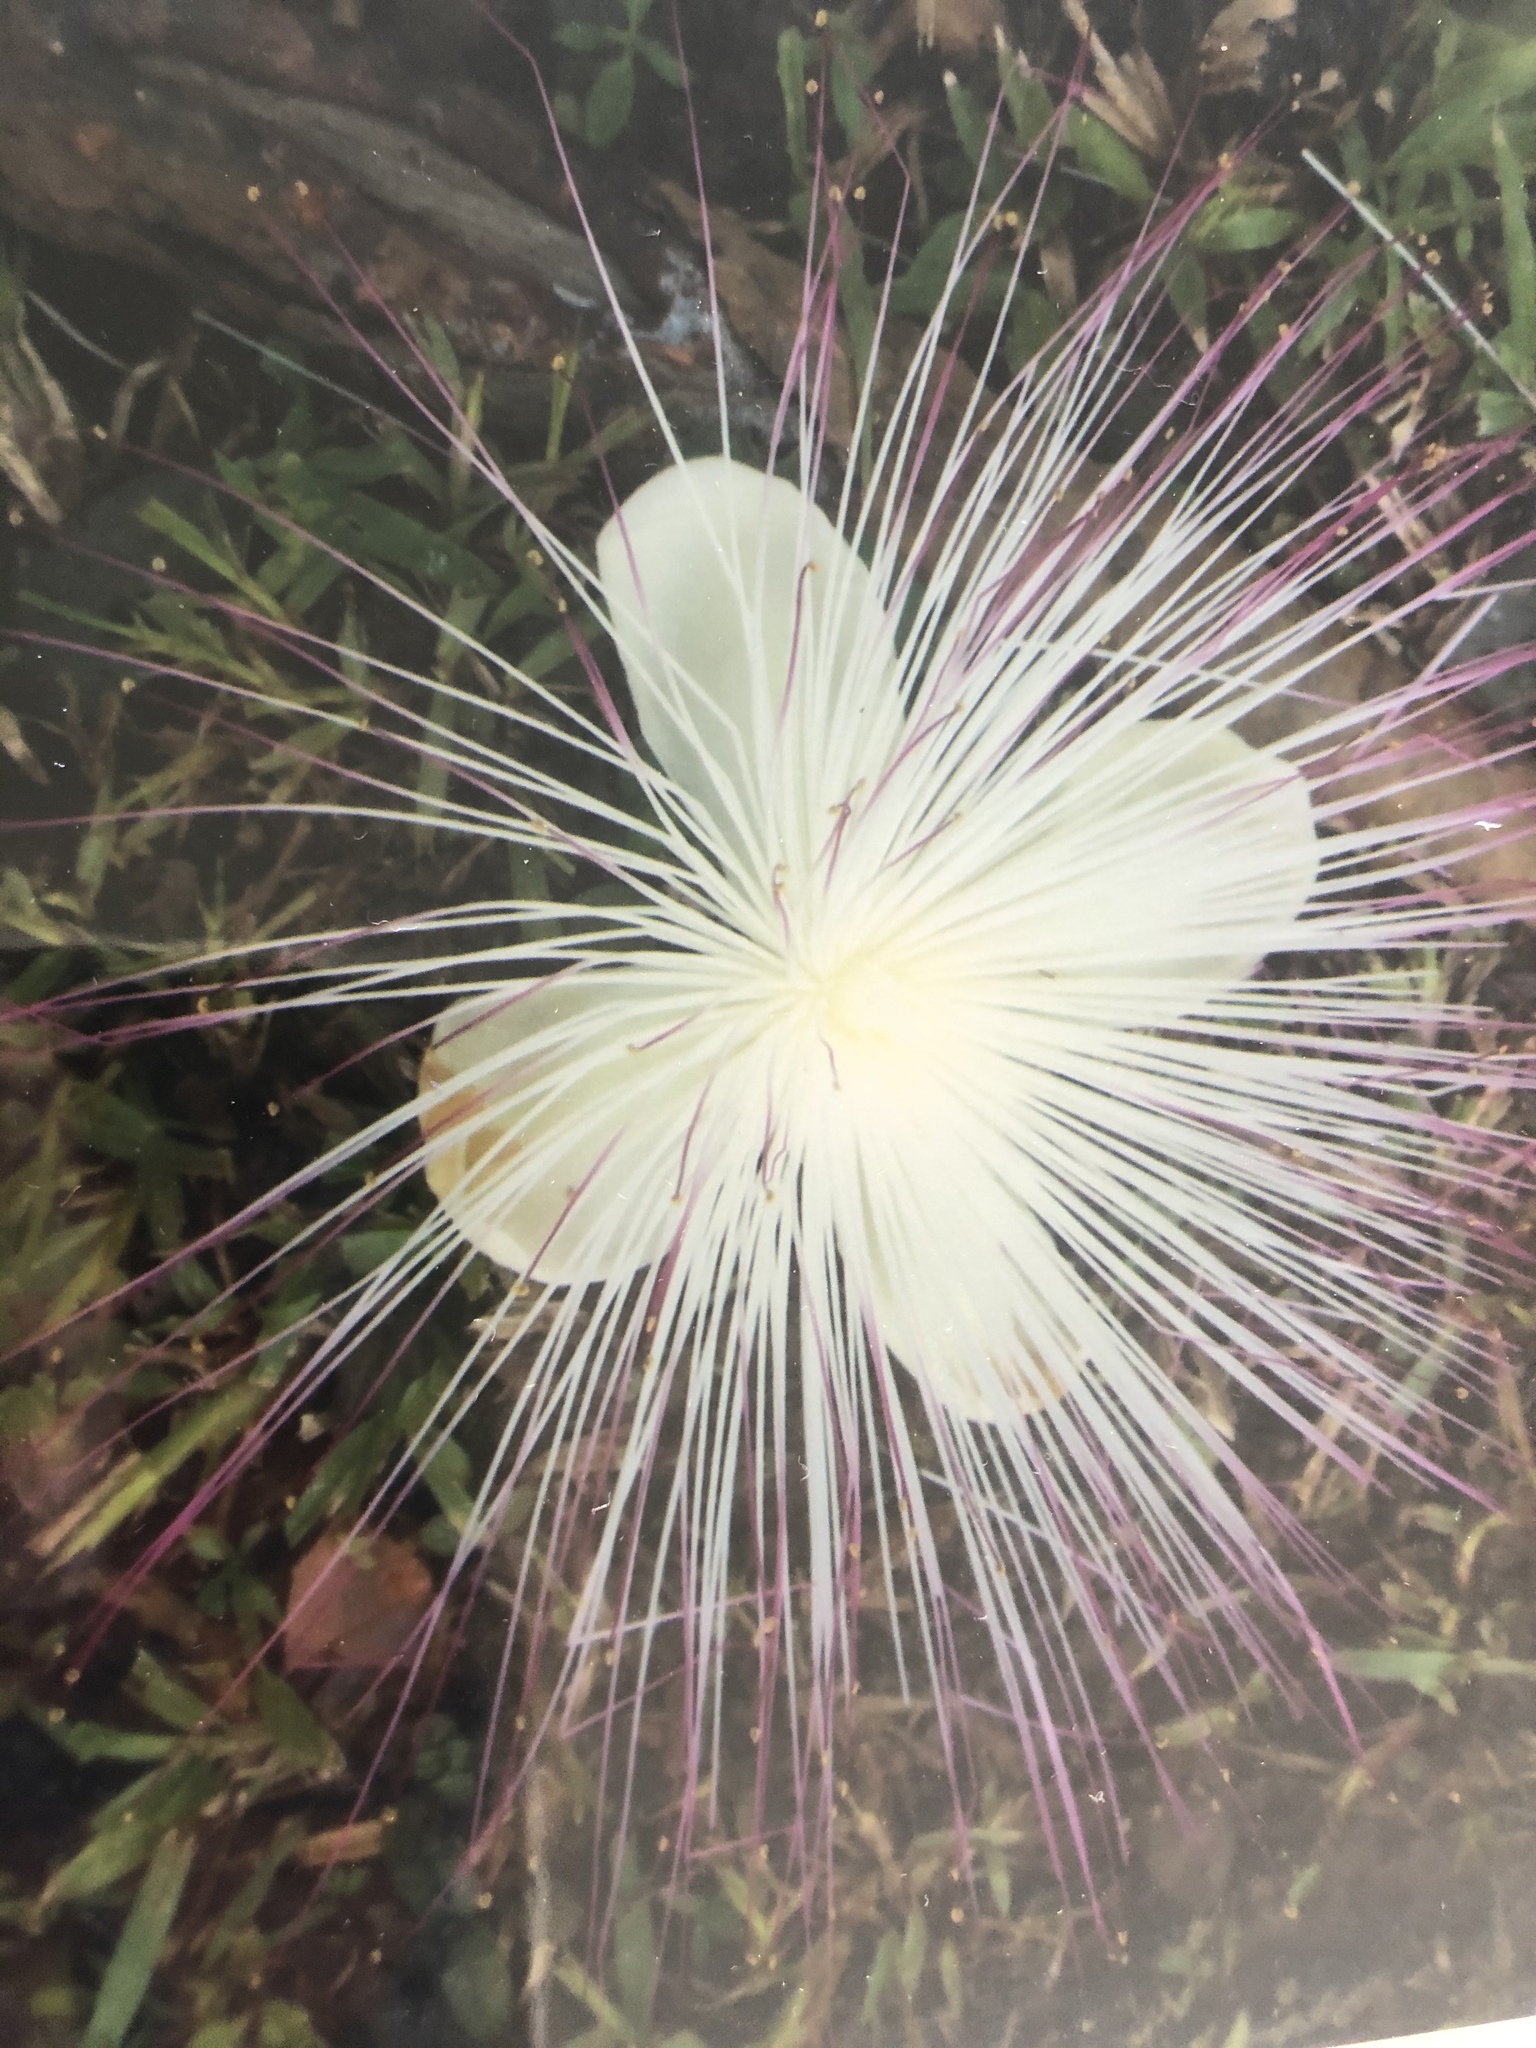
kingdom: Plantae
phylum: Tracheophyta
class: Magnoliopsida
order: Ericales
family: Lecythidaceae
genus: Barringtonia
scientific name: Barringtonia asiatica
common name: Mango-pine
